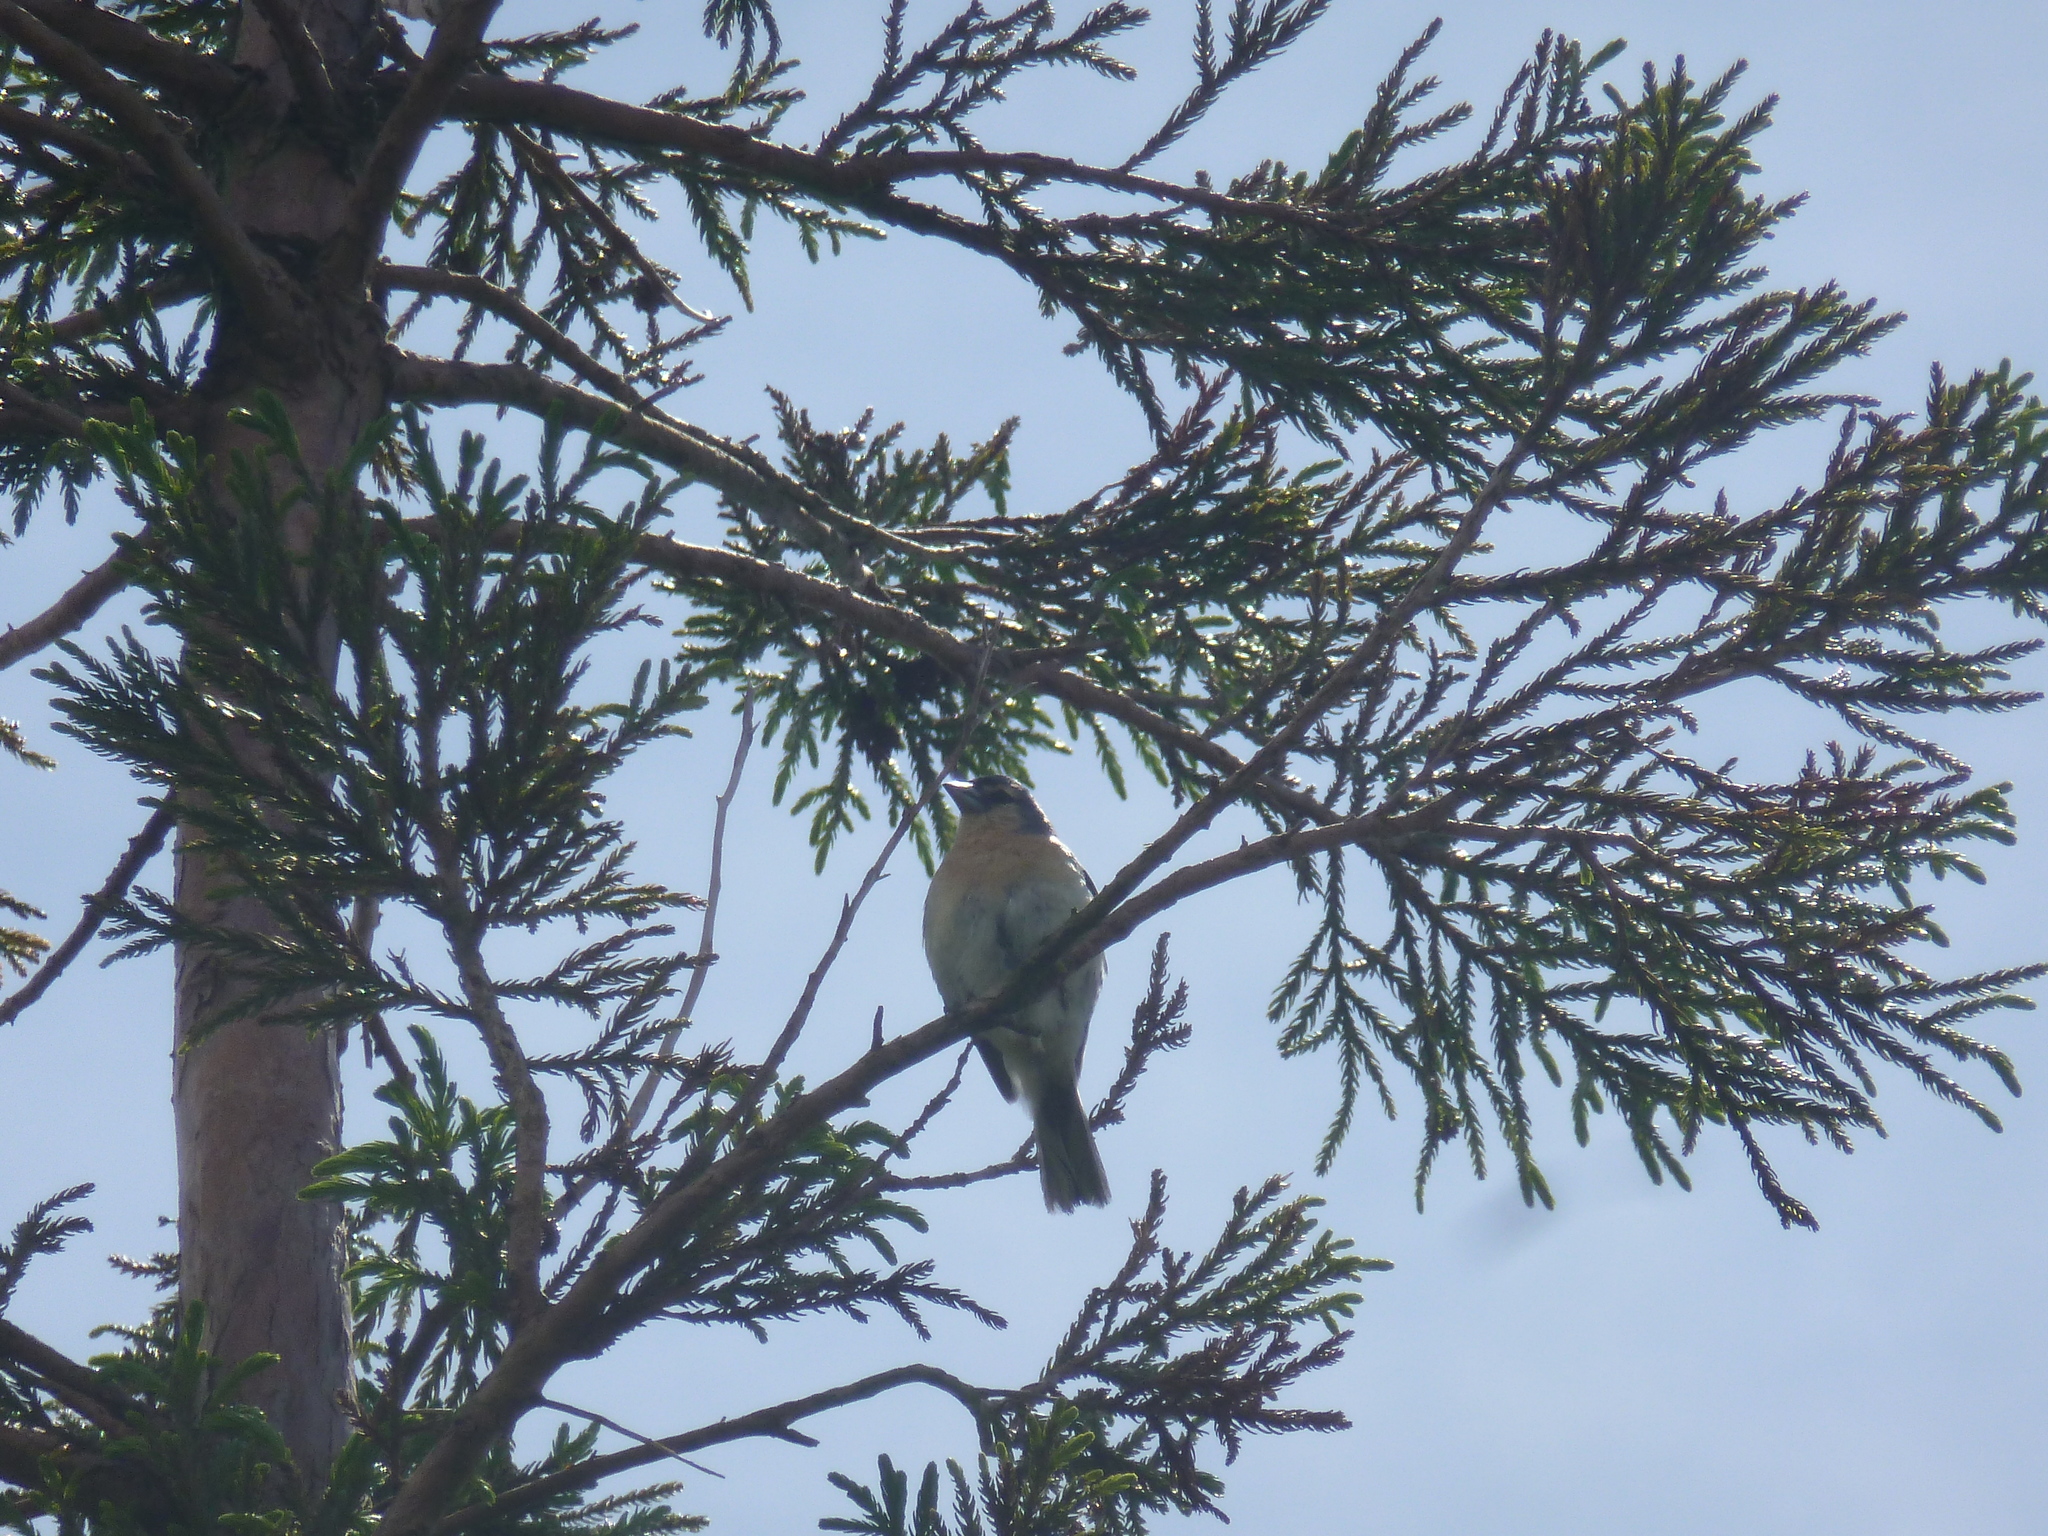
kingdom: Animalia
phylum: Chordata
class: Aves
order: Passeriformes
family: Fringillidae
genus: Fringilla
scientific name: Fringilla moreletti
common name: Azores chaffinch
